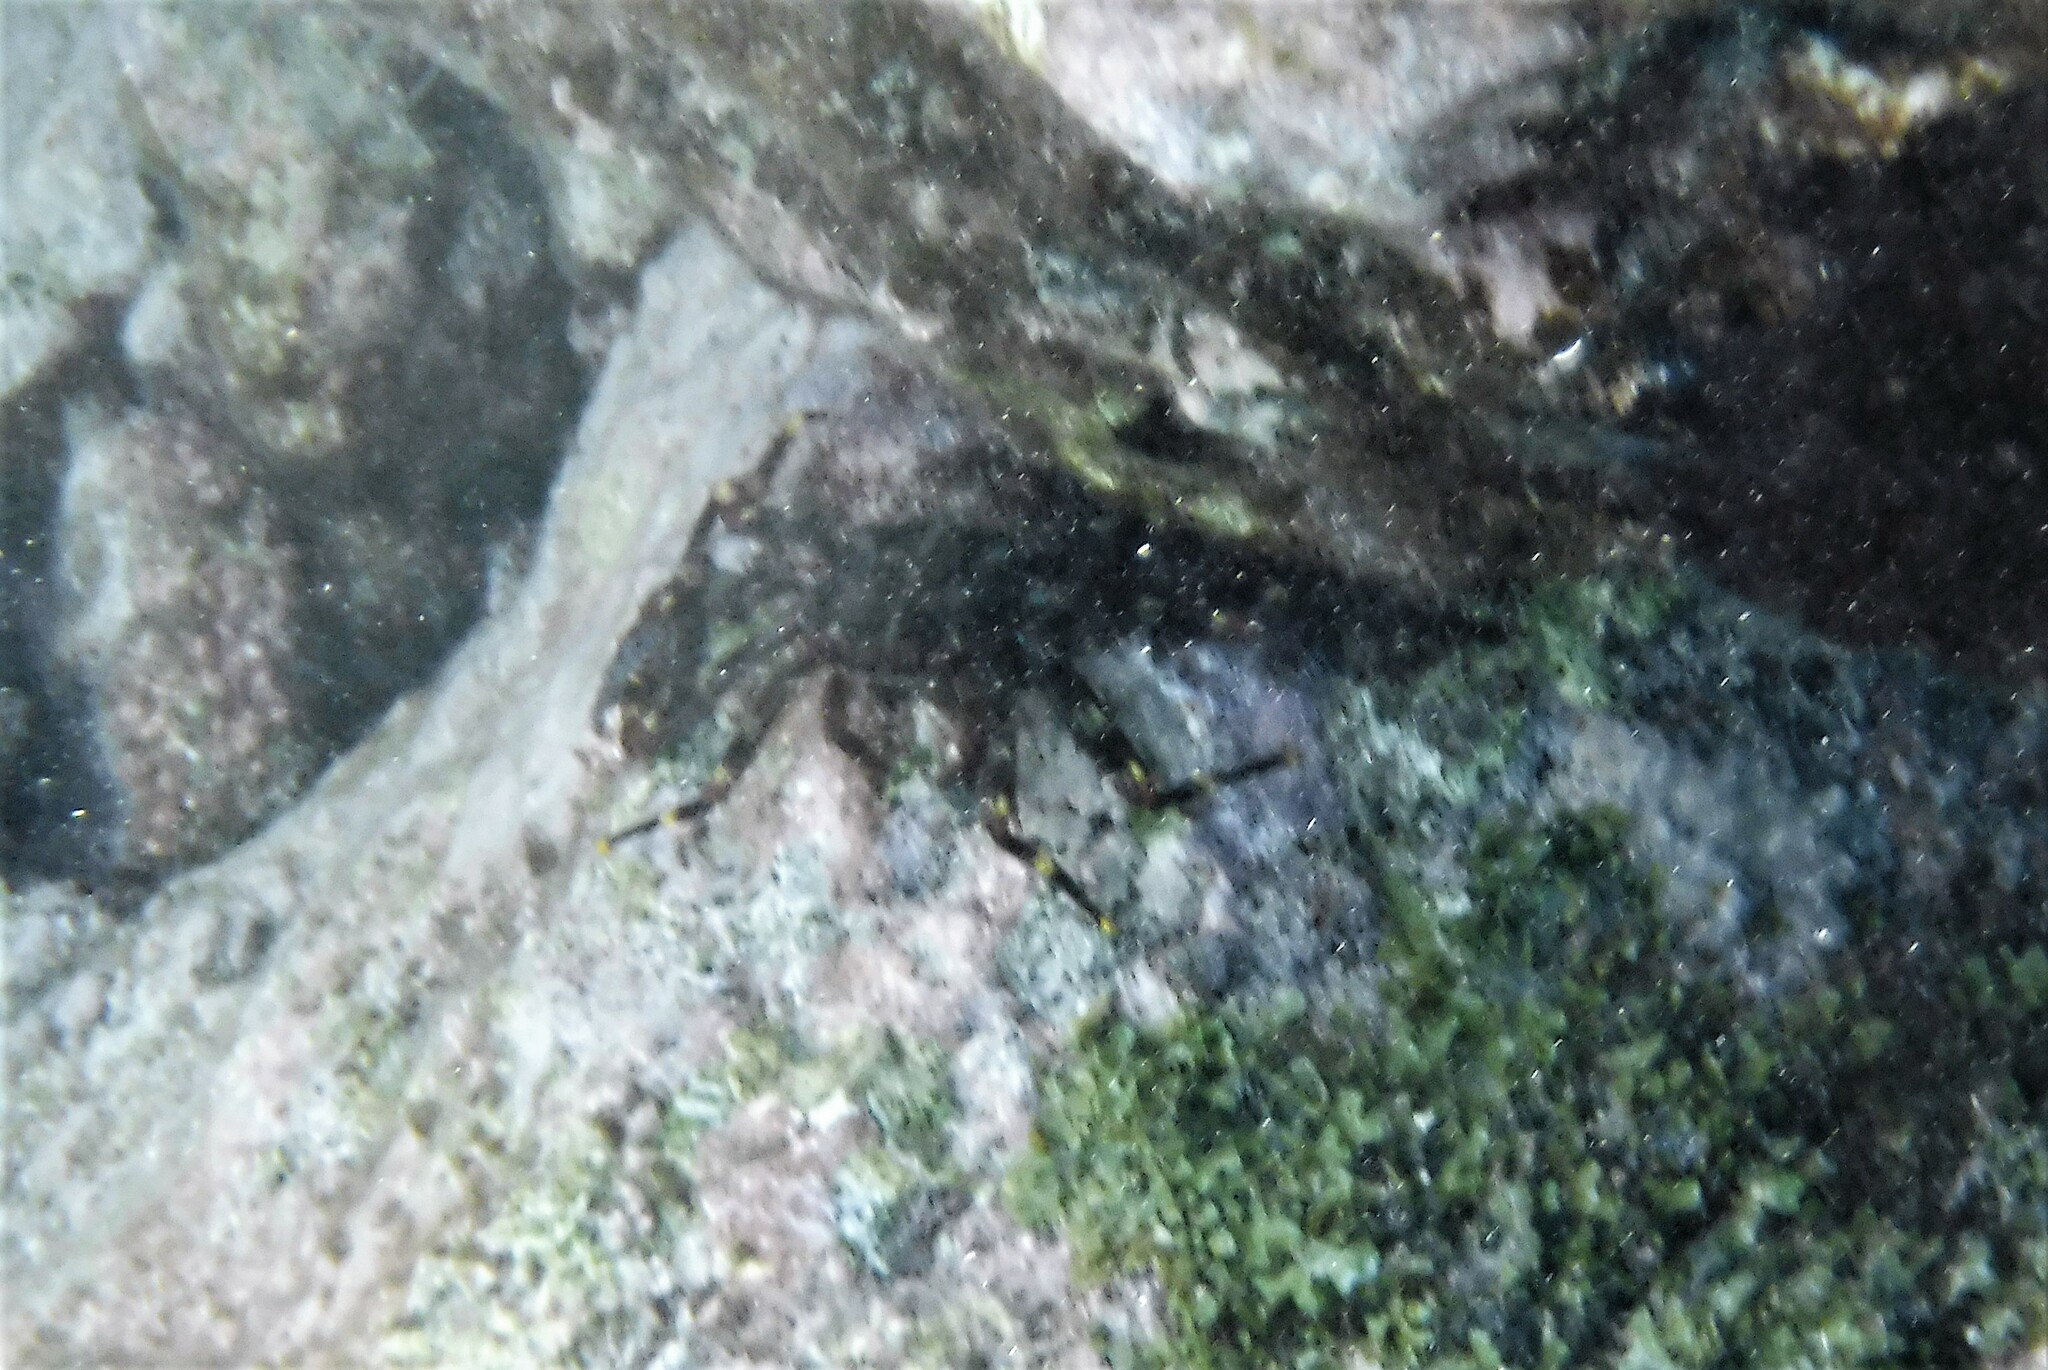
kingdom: Animalia
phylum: Arthropoda
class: Malacostraca
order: Decapoda
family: Percnidae
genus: Percnon
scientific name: Percnon gibbesi
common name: Nimble spray crab
